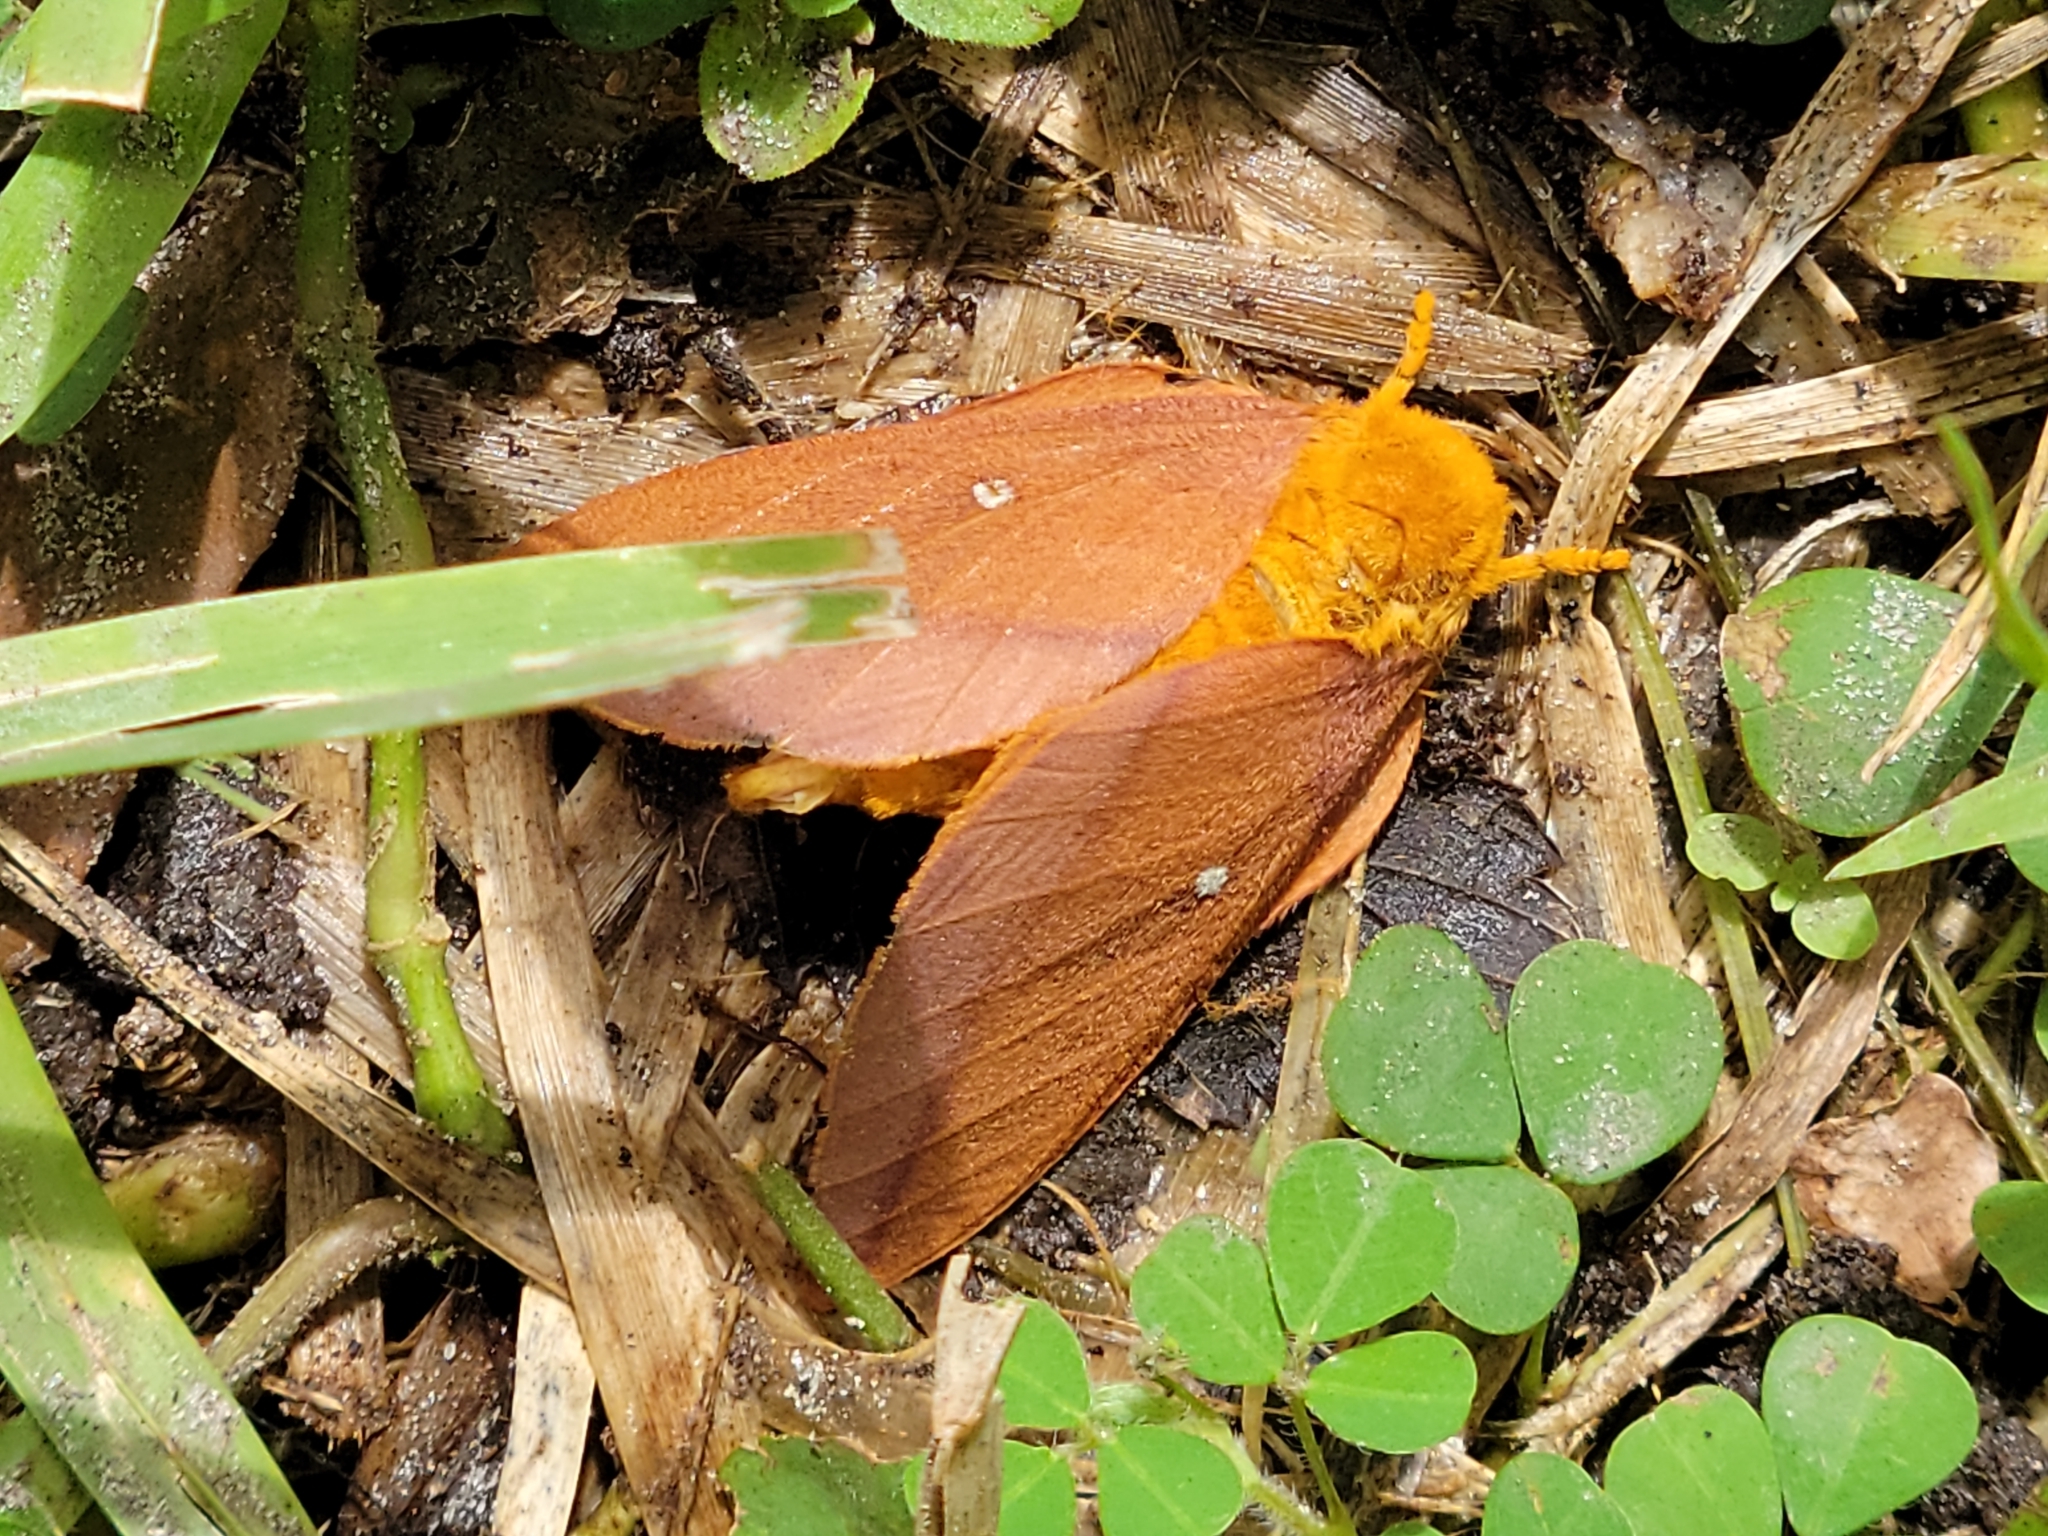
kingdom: Animalia
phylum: Arthropoda
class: Insecta
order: Lepidoptera
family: Saturniidae
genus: Anisota
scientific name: Anisota virginiensis
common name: Pink striped oakworm moth
